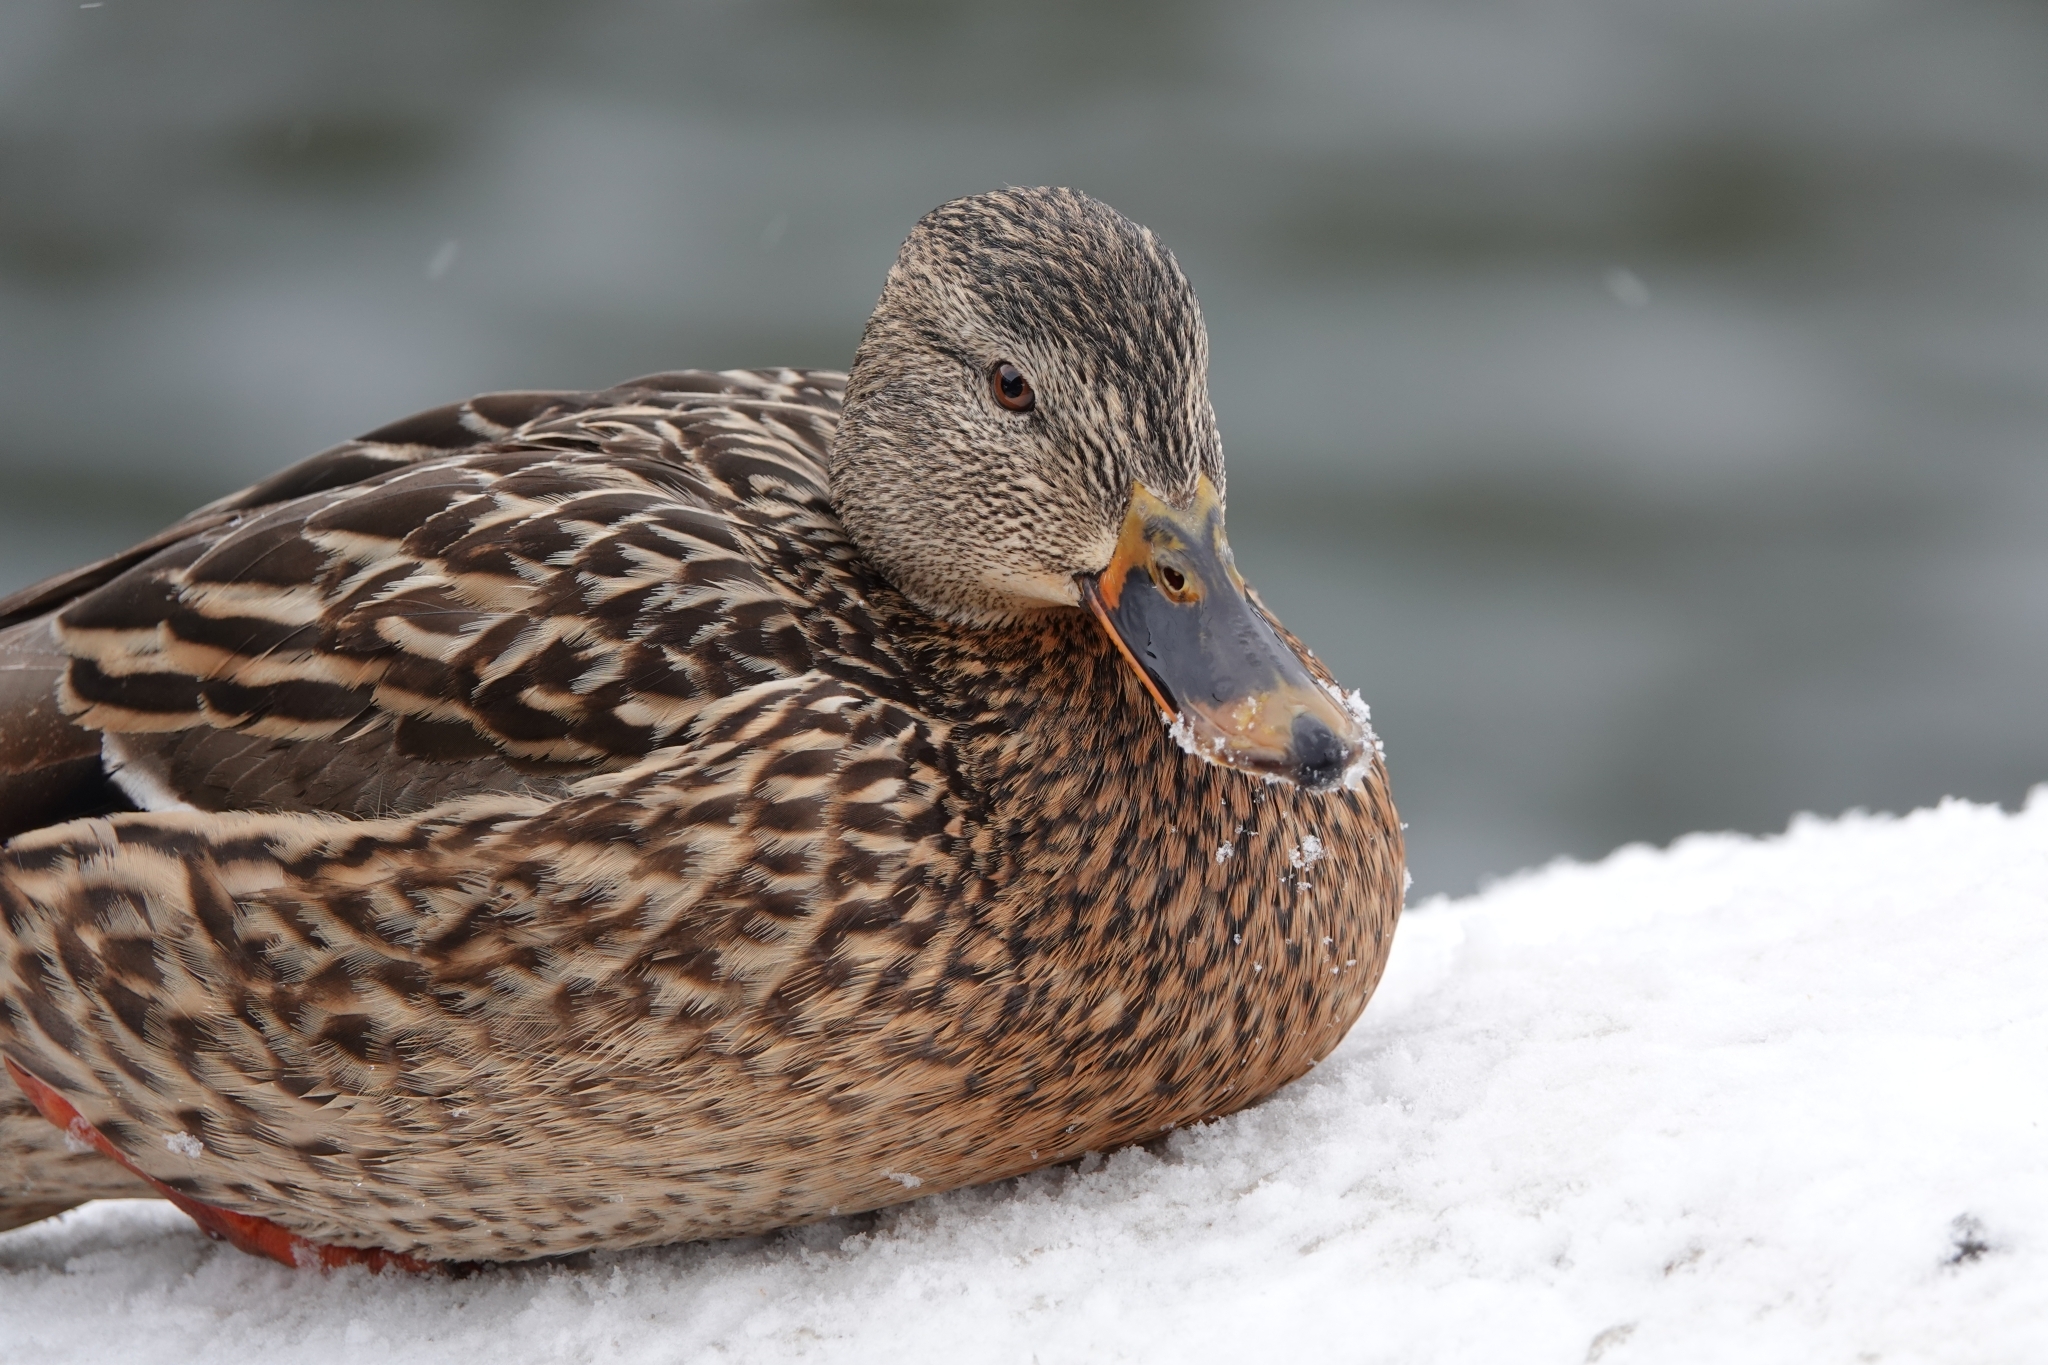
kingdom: Animalia
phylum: Chordata
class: Aves
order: Anseriformes
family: Anatidae
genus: Anas
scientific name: Anas platyrhynchos
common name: Mallard
